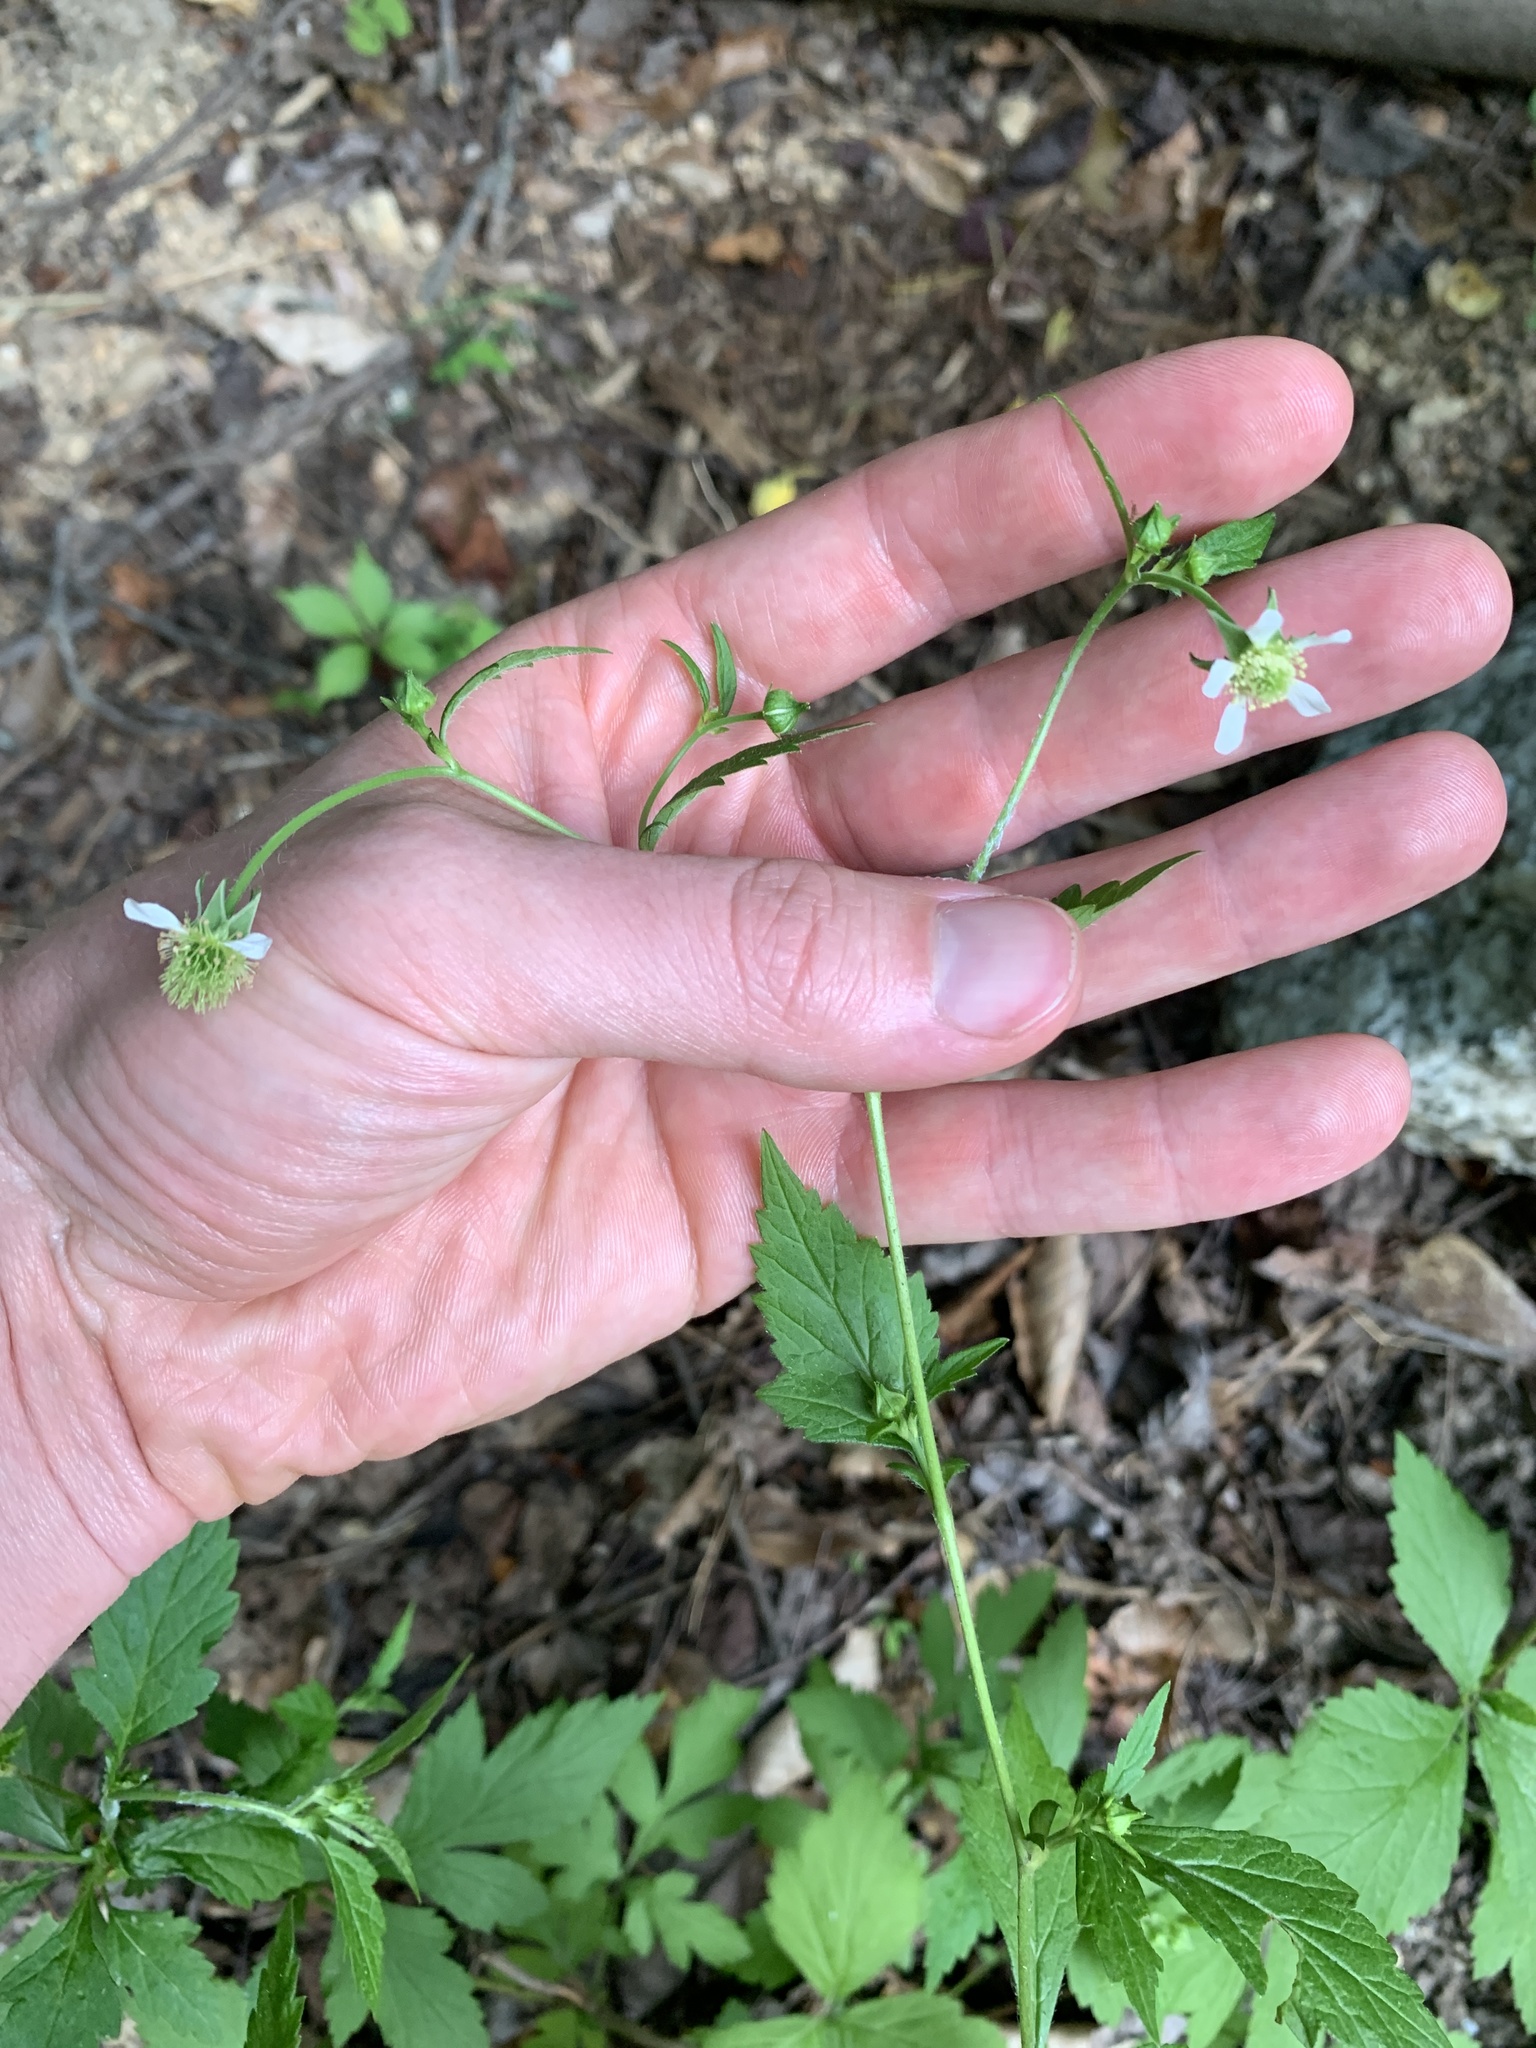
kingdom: Plantae
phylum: Tracheophyta
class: Magnoliopsida
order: Rosales
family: Rosaceae
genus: Geum
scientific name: Geum canadense
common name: White avens
